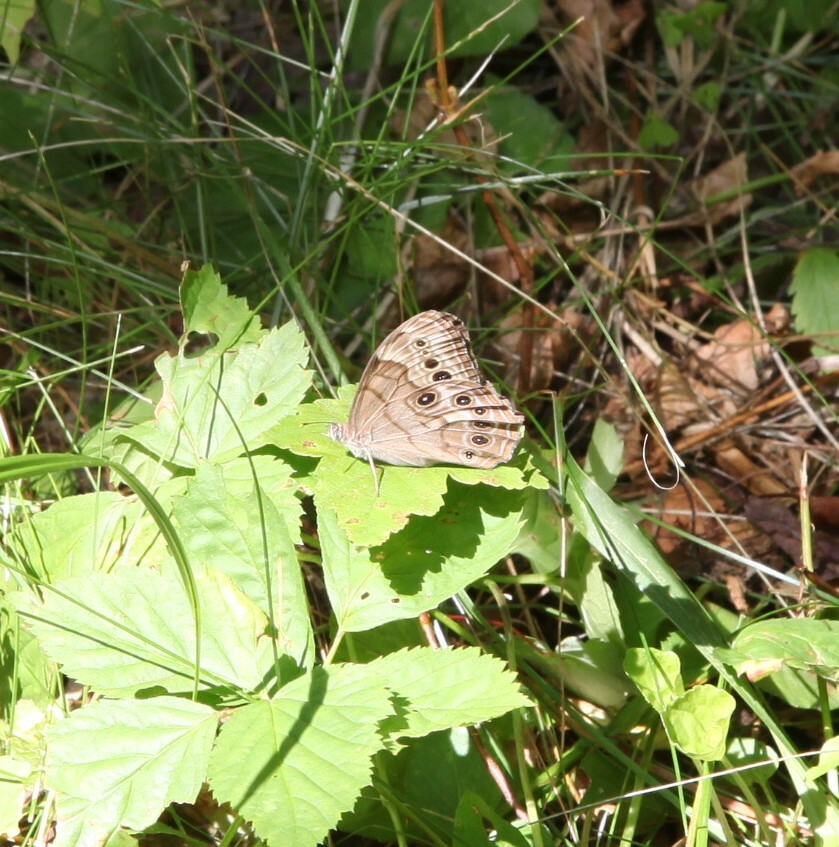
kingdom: Animalia
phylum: Arthropoda
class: Insecta
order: Lepidoptera
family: Nymphalidae
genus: Lethe
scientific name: Lethe anthedon
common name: Northern pearly-eye
